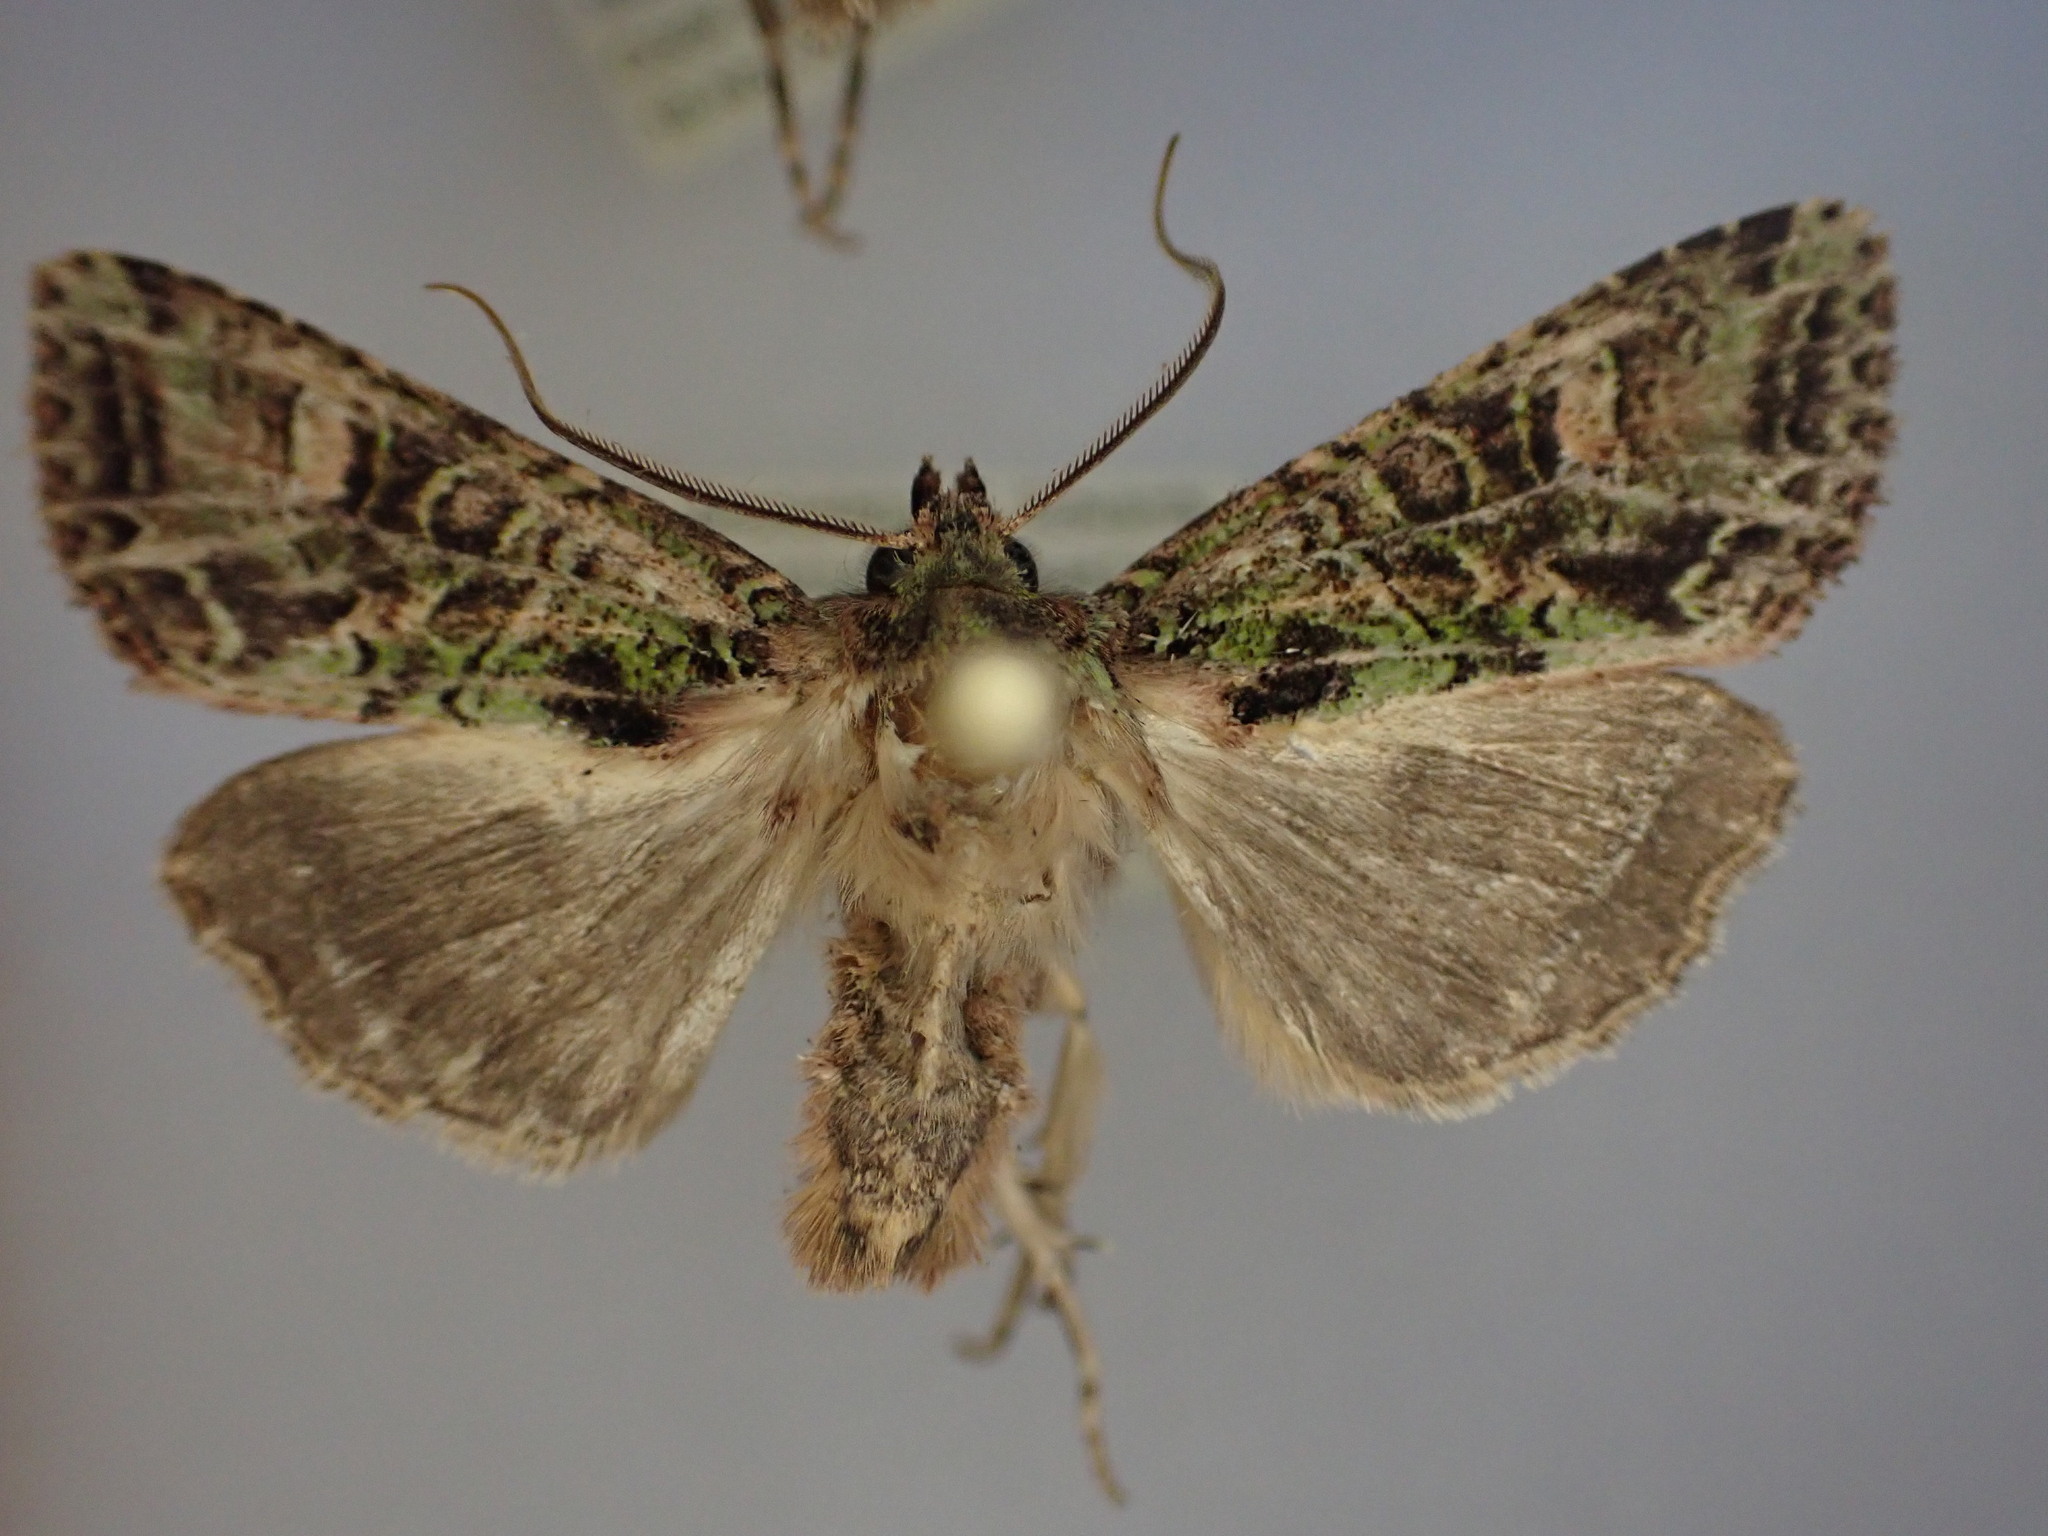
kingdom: Animalia
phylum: Arthropoda
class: Insecta
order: Lepidoptera
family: Noctuidae
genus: Ichneutica
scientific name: Ichneutica
